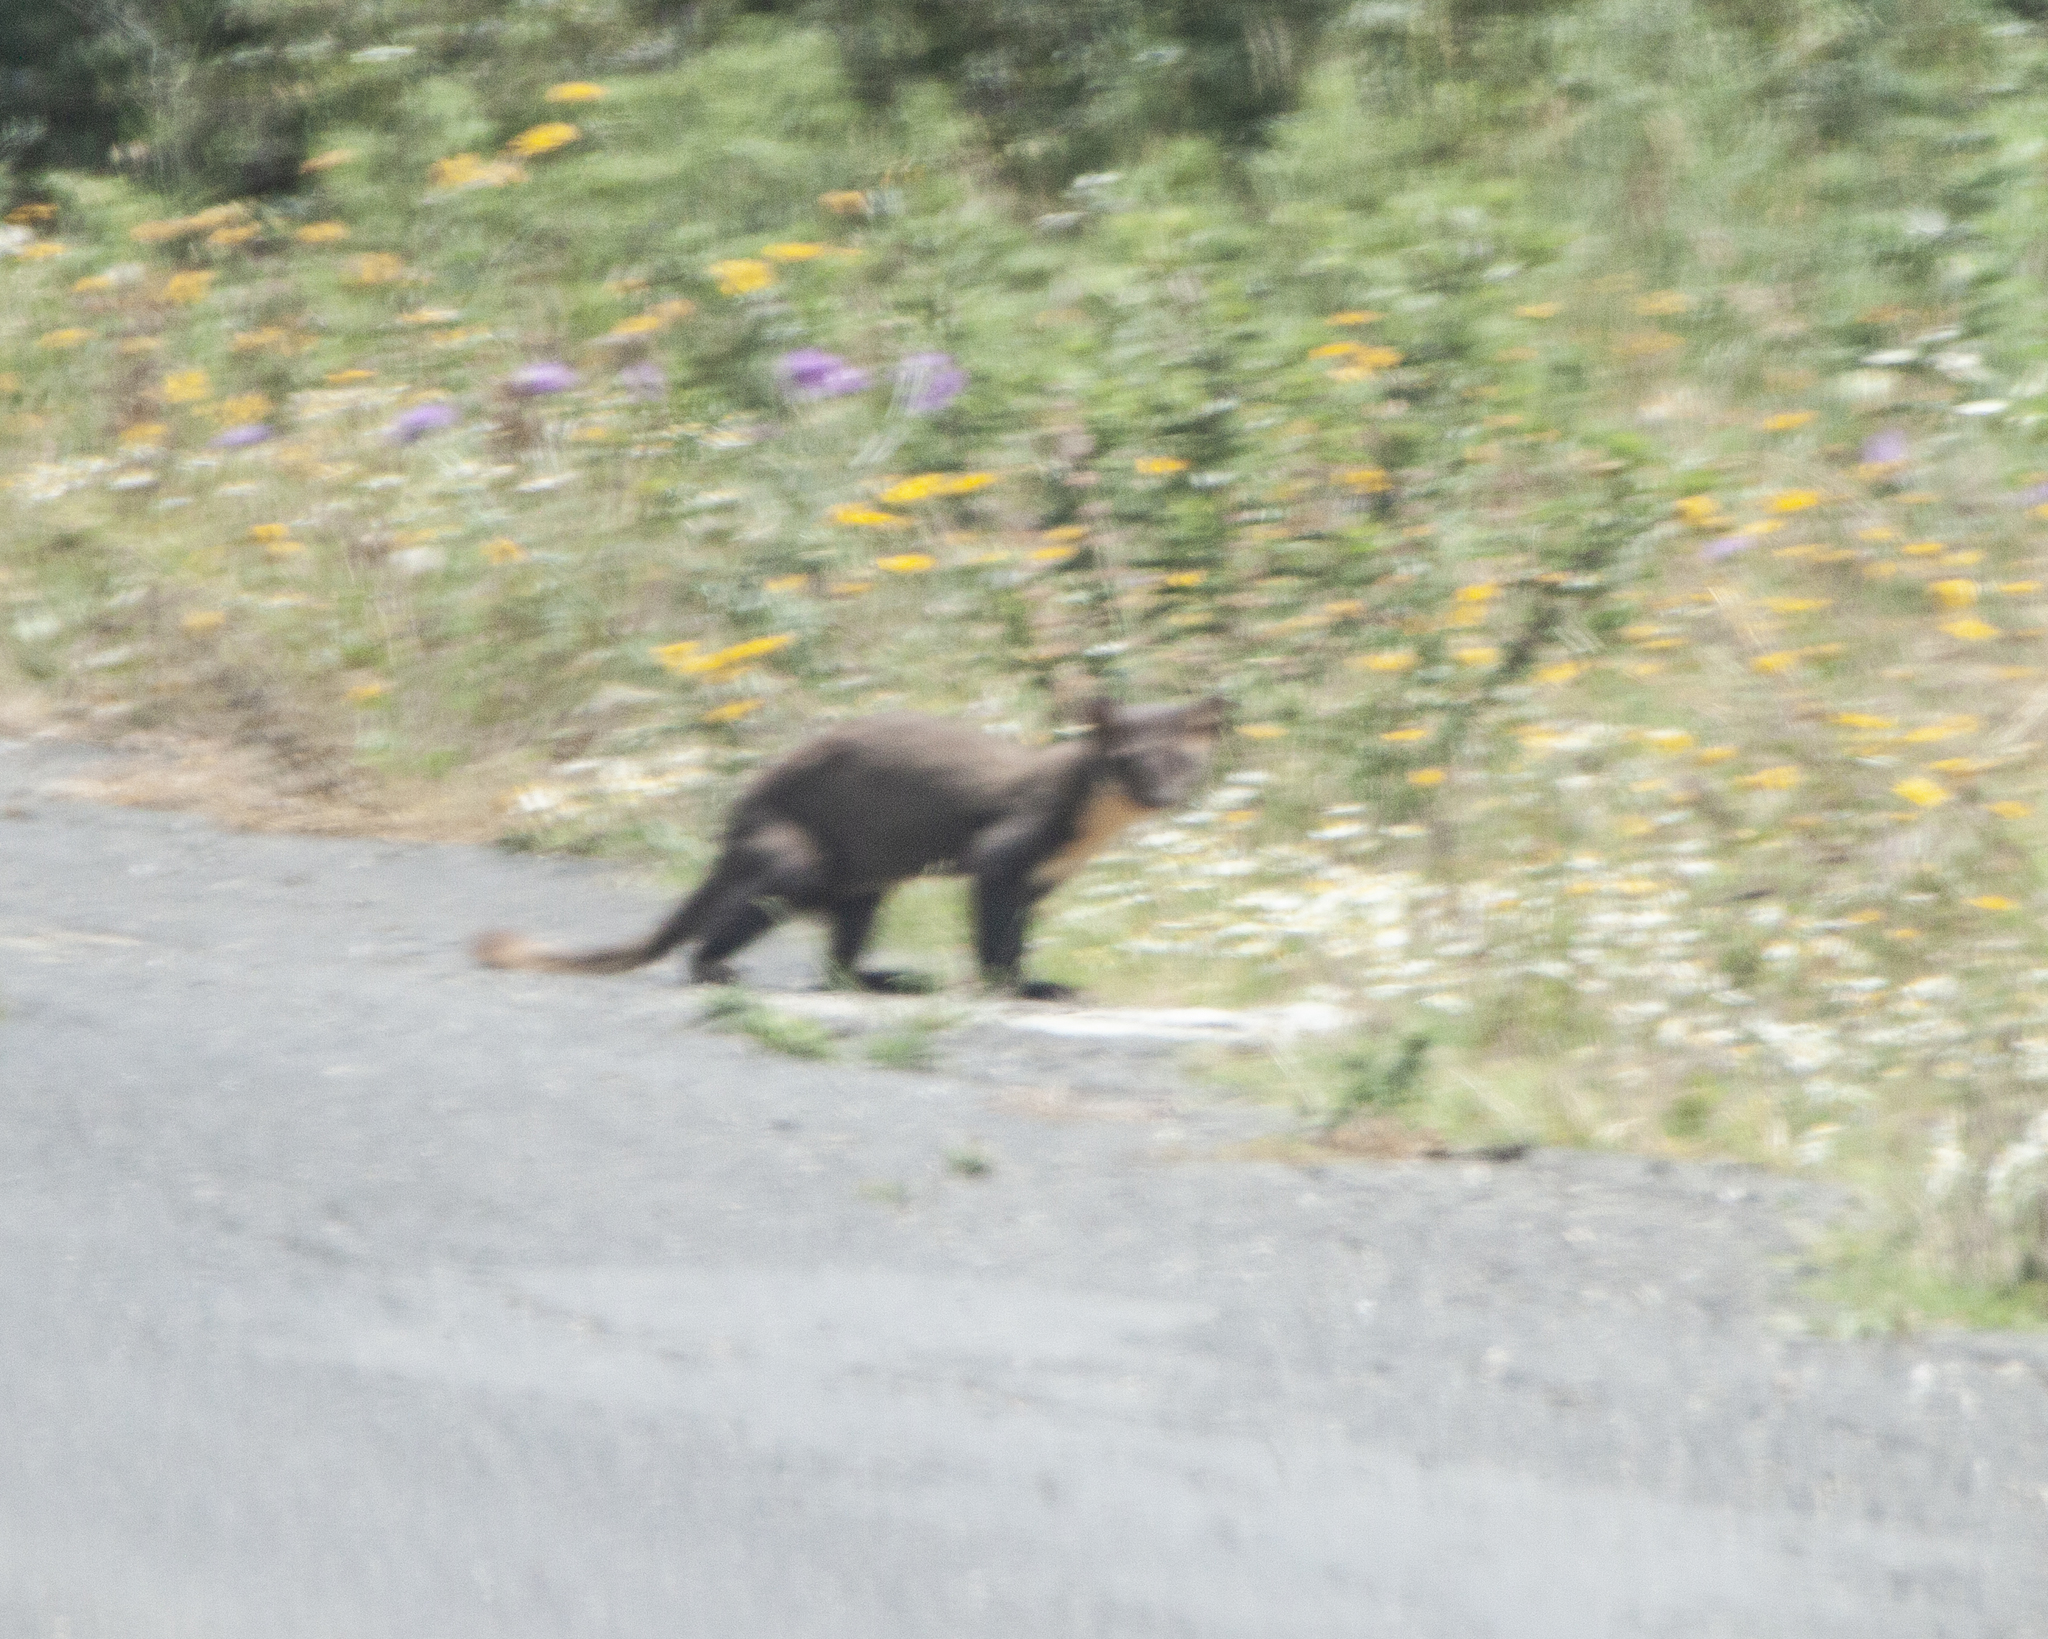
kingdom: Animalia
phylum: Chordata
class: Mammalia
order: Carnivora
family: Mustelidae
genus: Martes
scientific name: Martes martes
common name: European pine marten
